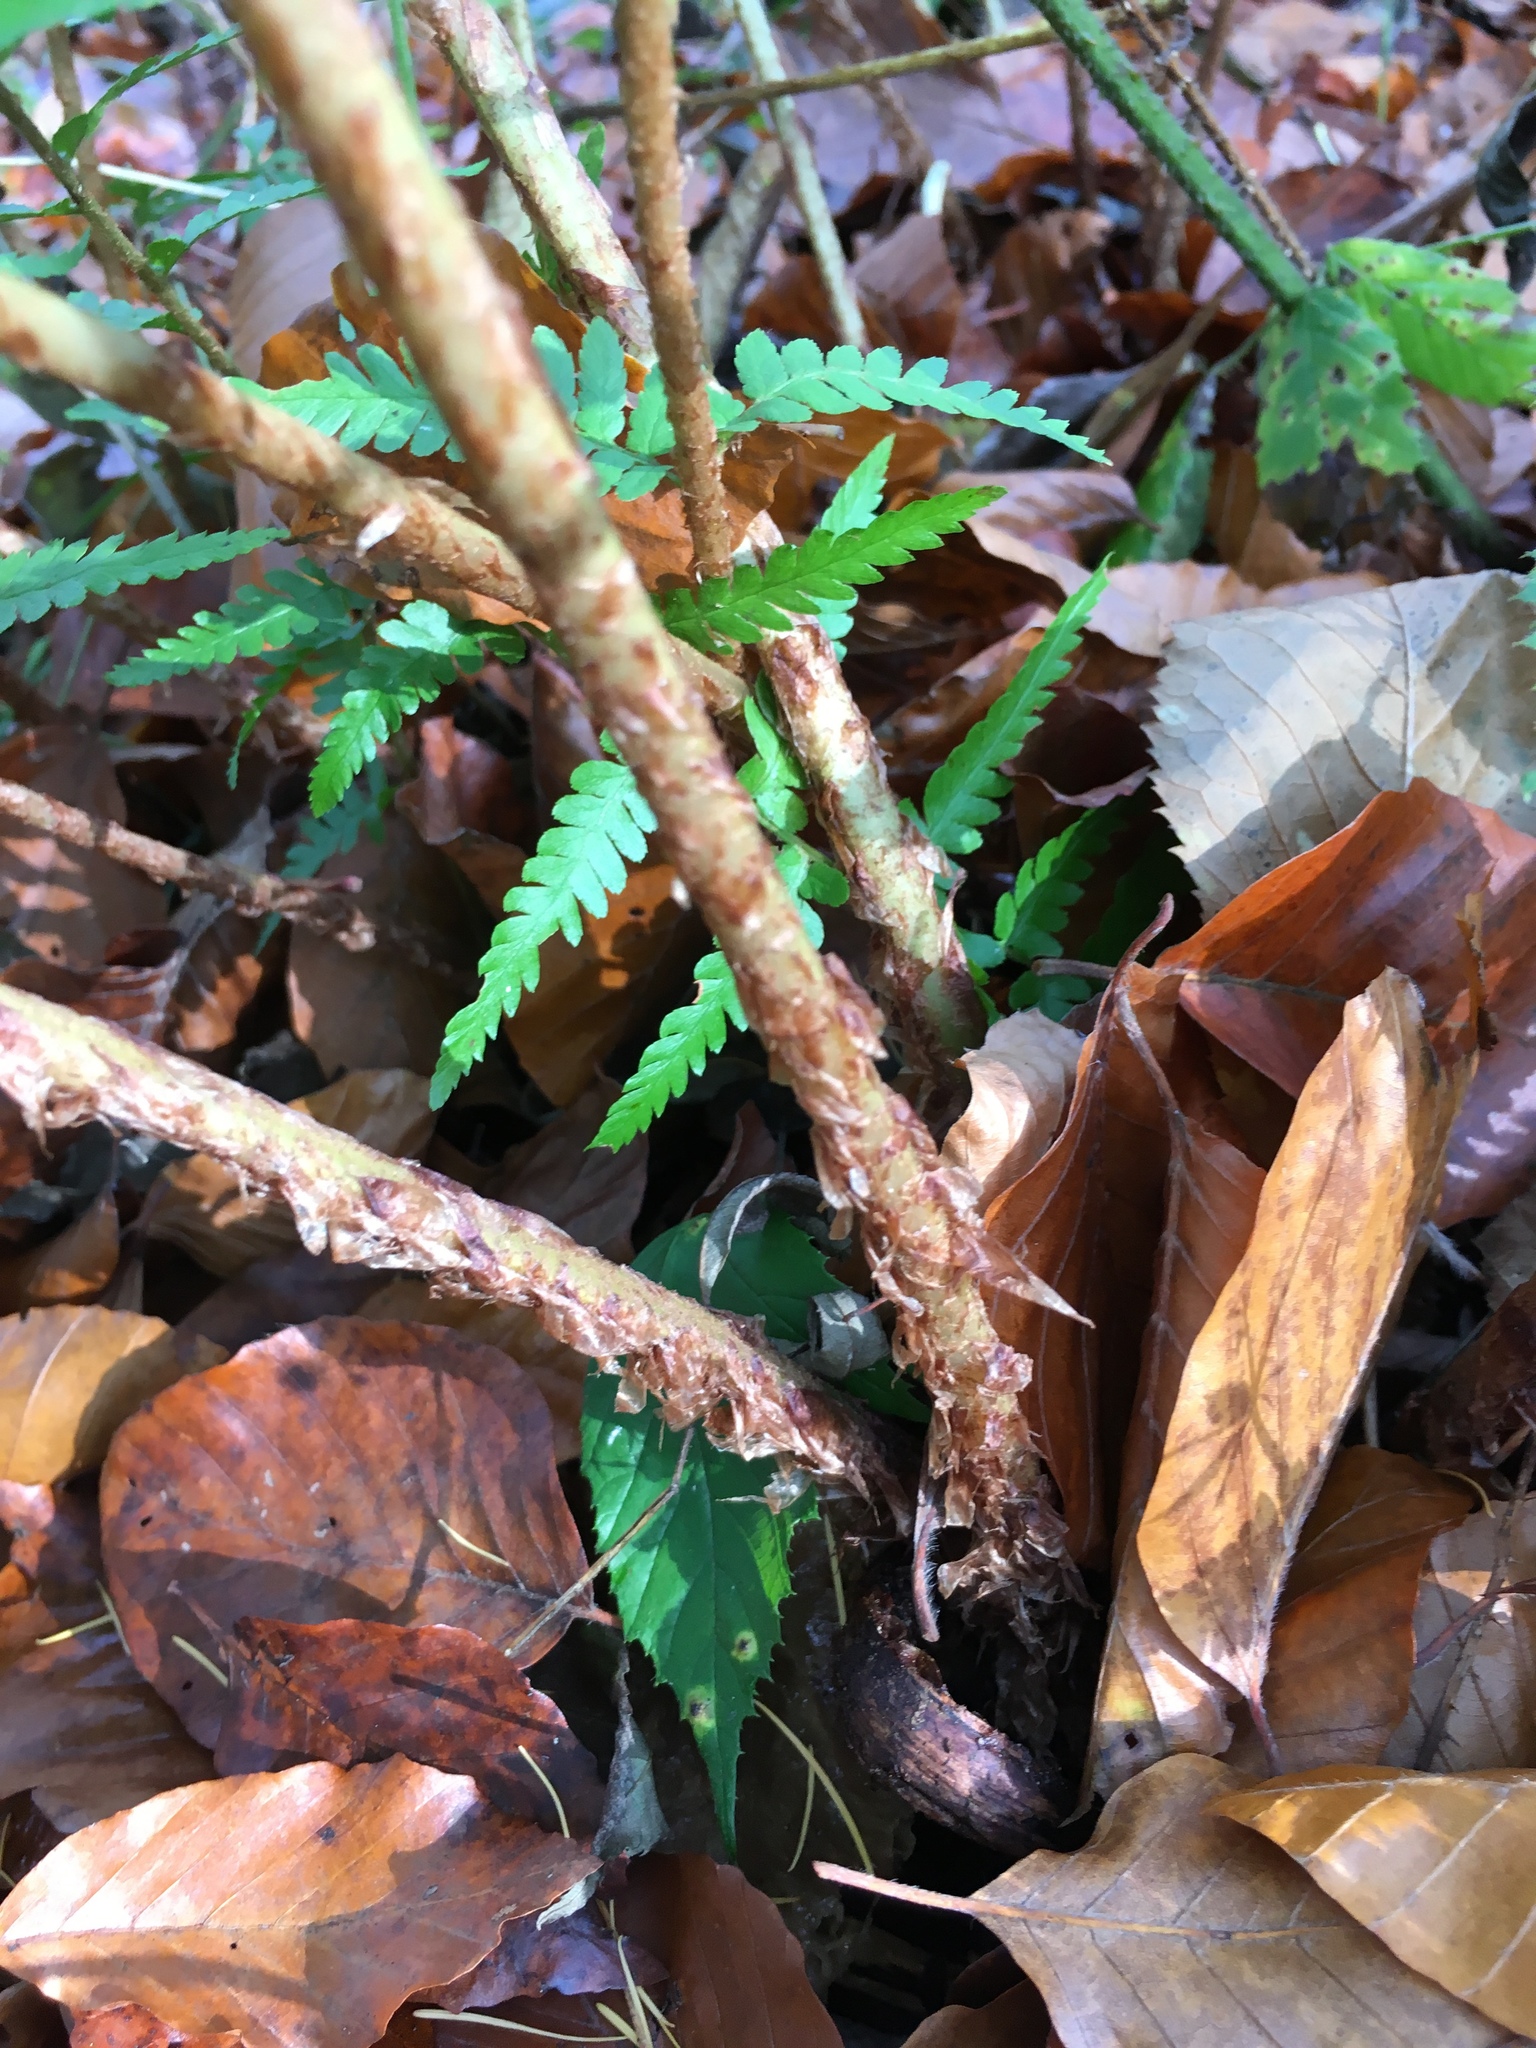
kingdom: Plantae
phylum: Tracheophyta
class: Polypodiopsida
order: Polypodiales
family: Dryopteridaceae
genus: Dryopteris
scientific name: Dryopteris filix-mas
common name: Male fern
